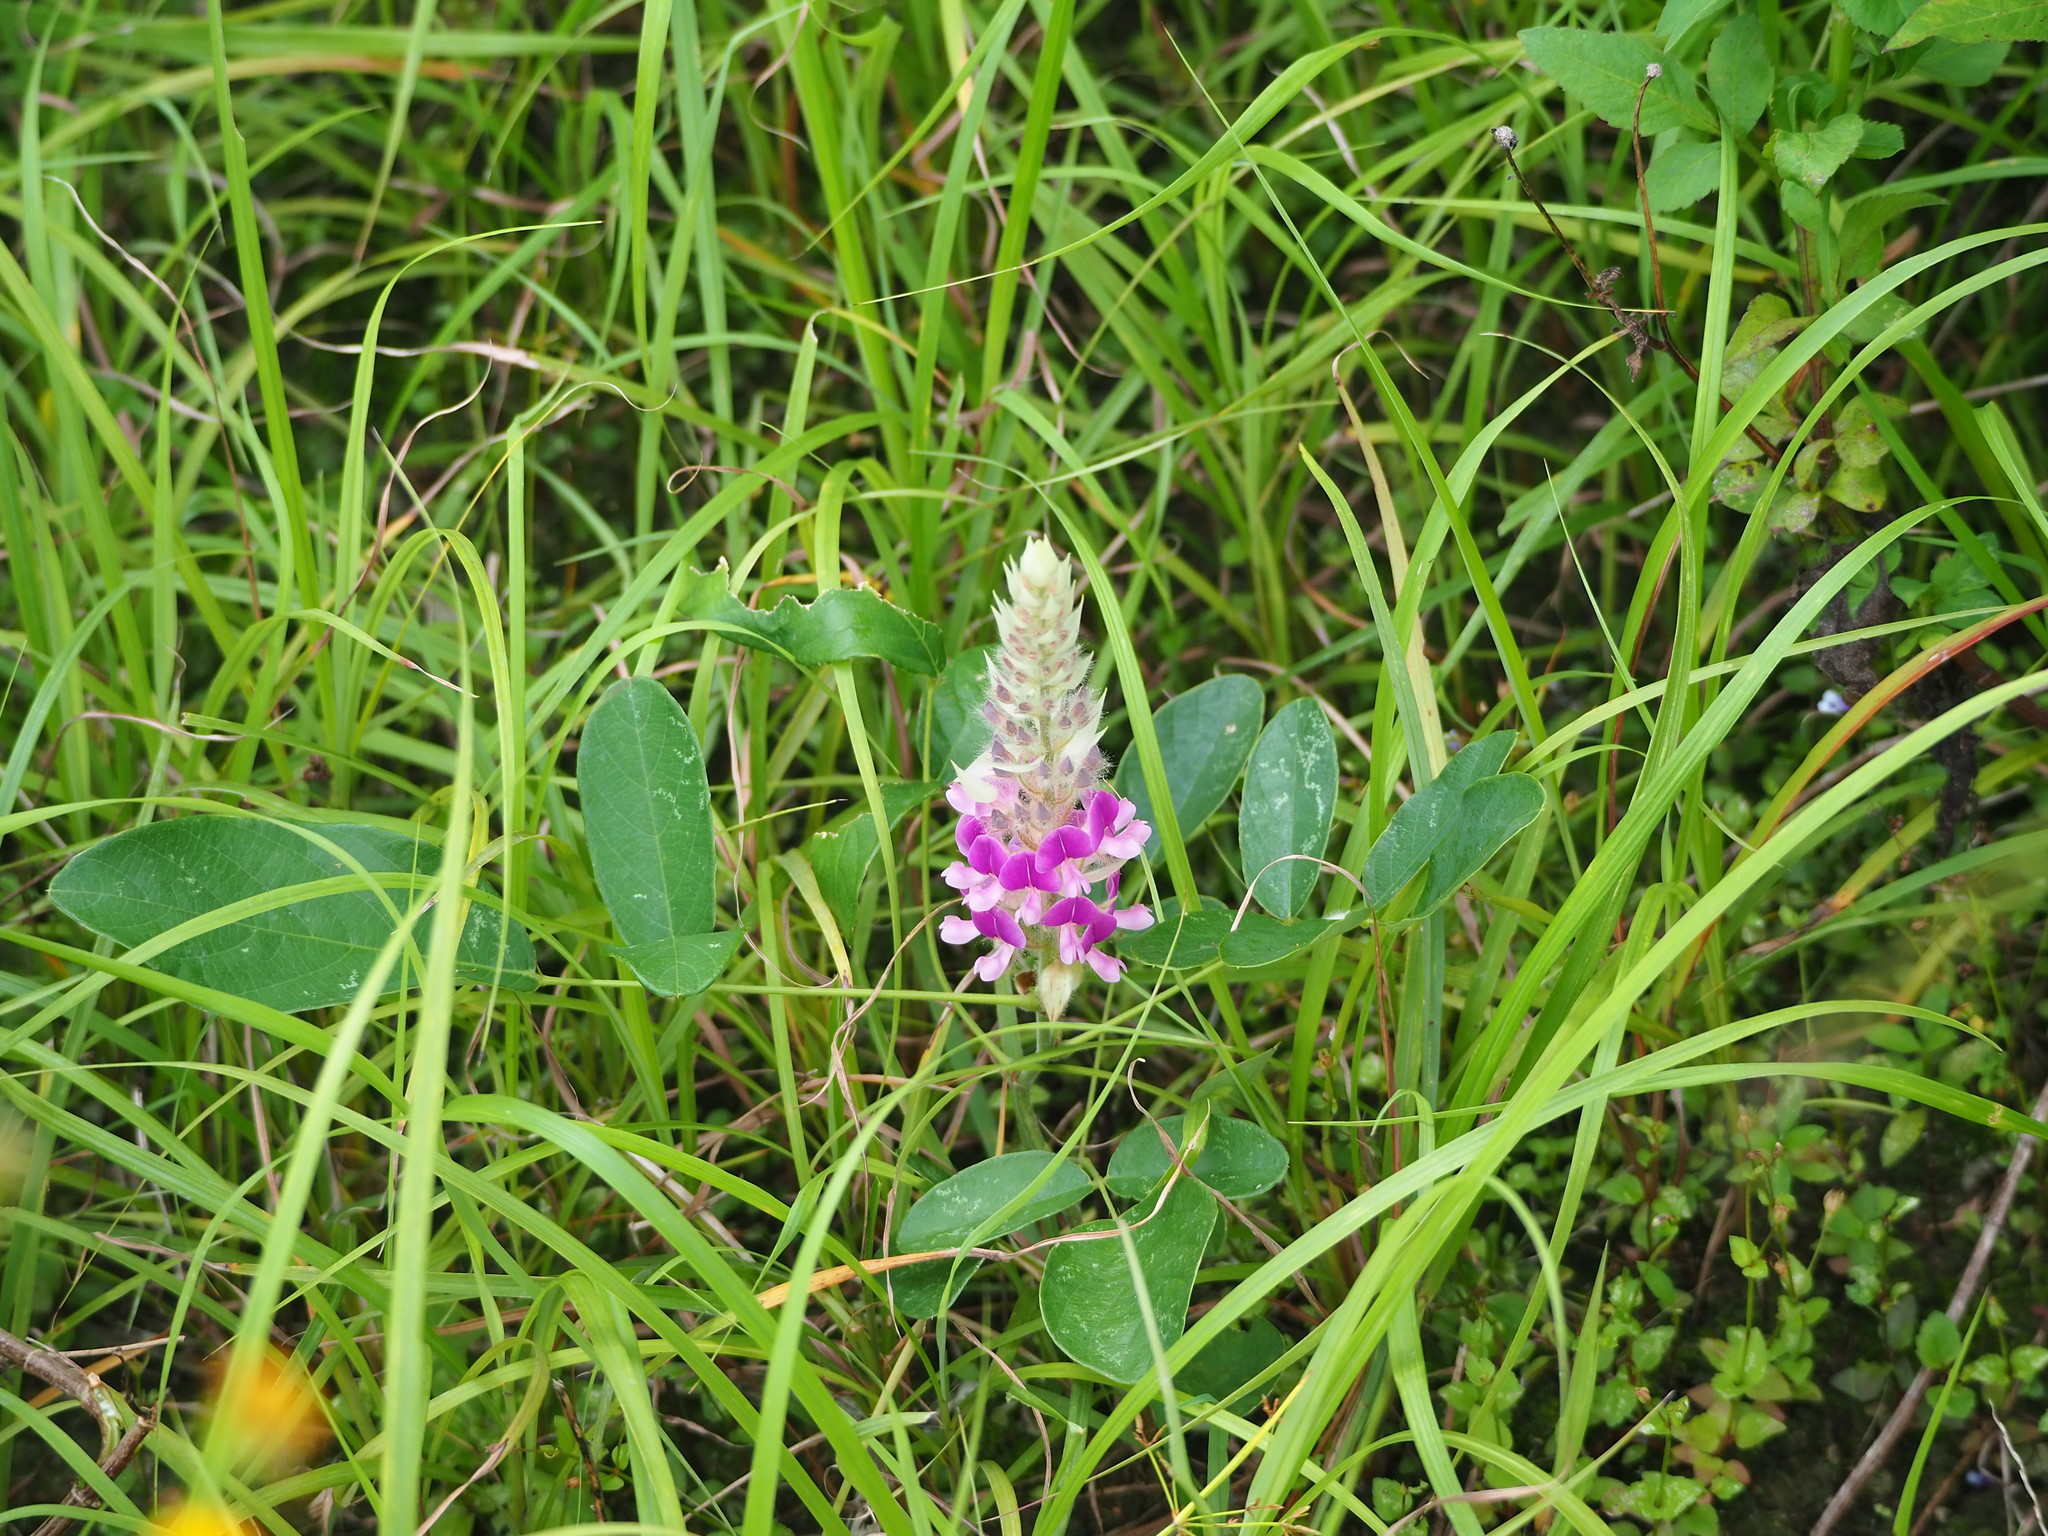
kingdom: Plantae
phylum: Tracheophyta
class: Magnoliopsida
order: Fabales
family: Fabaceae
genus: Uraria
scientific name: Uraria crinita
